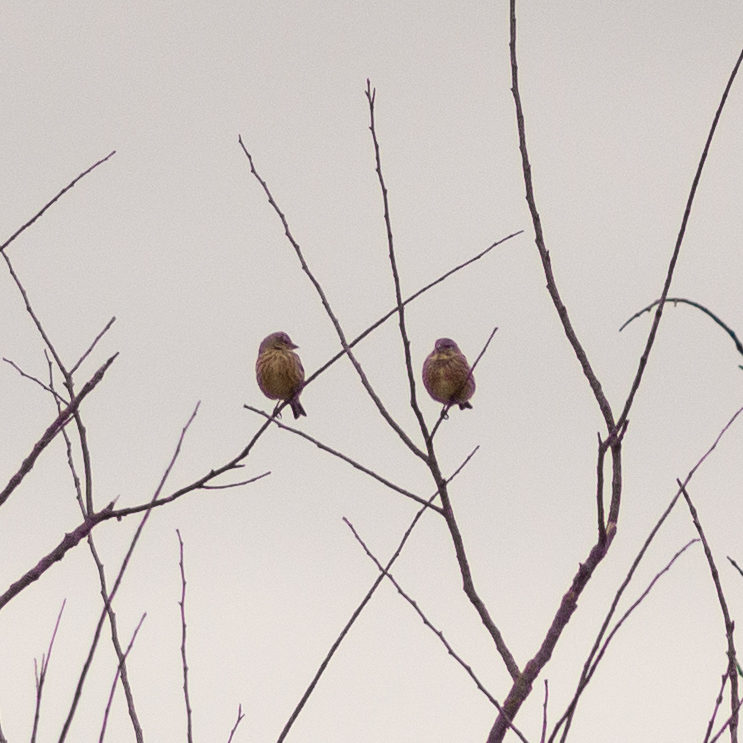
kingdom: Animalia
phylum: Chordata
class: Aves
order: Passeriformes
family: Fringillidae
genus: Linaria
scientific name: Linaria cannabina
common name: Common linnet
